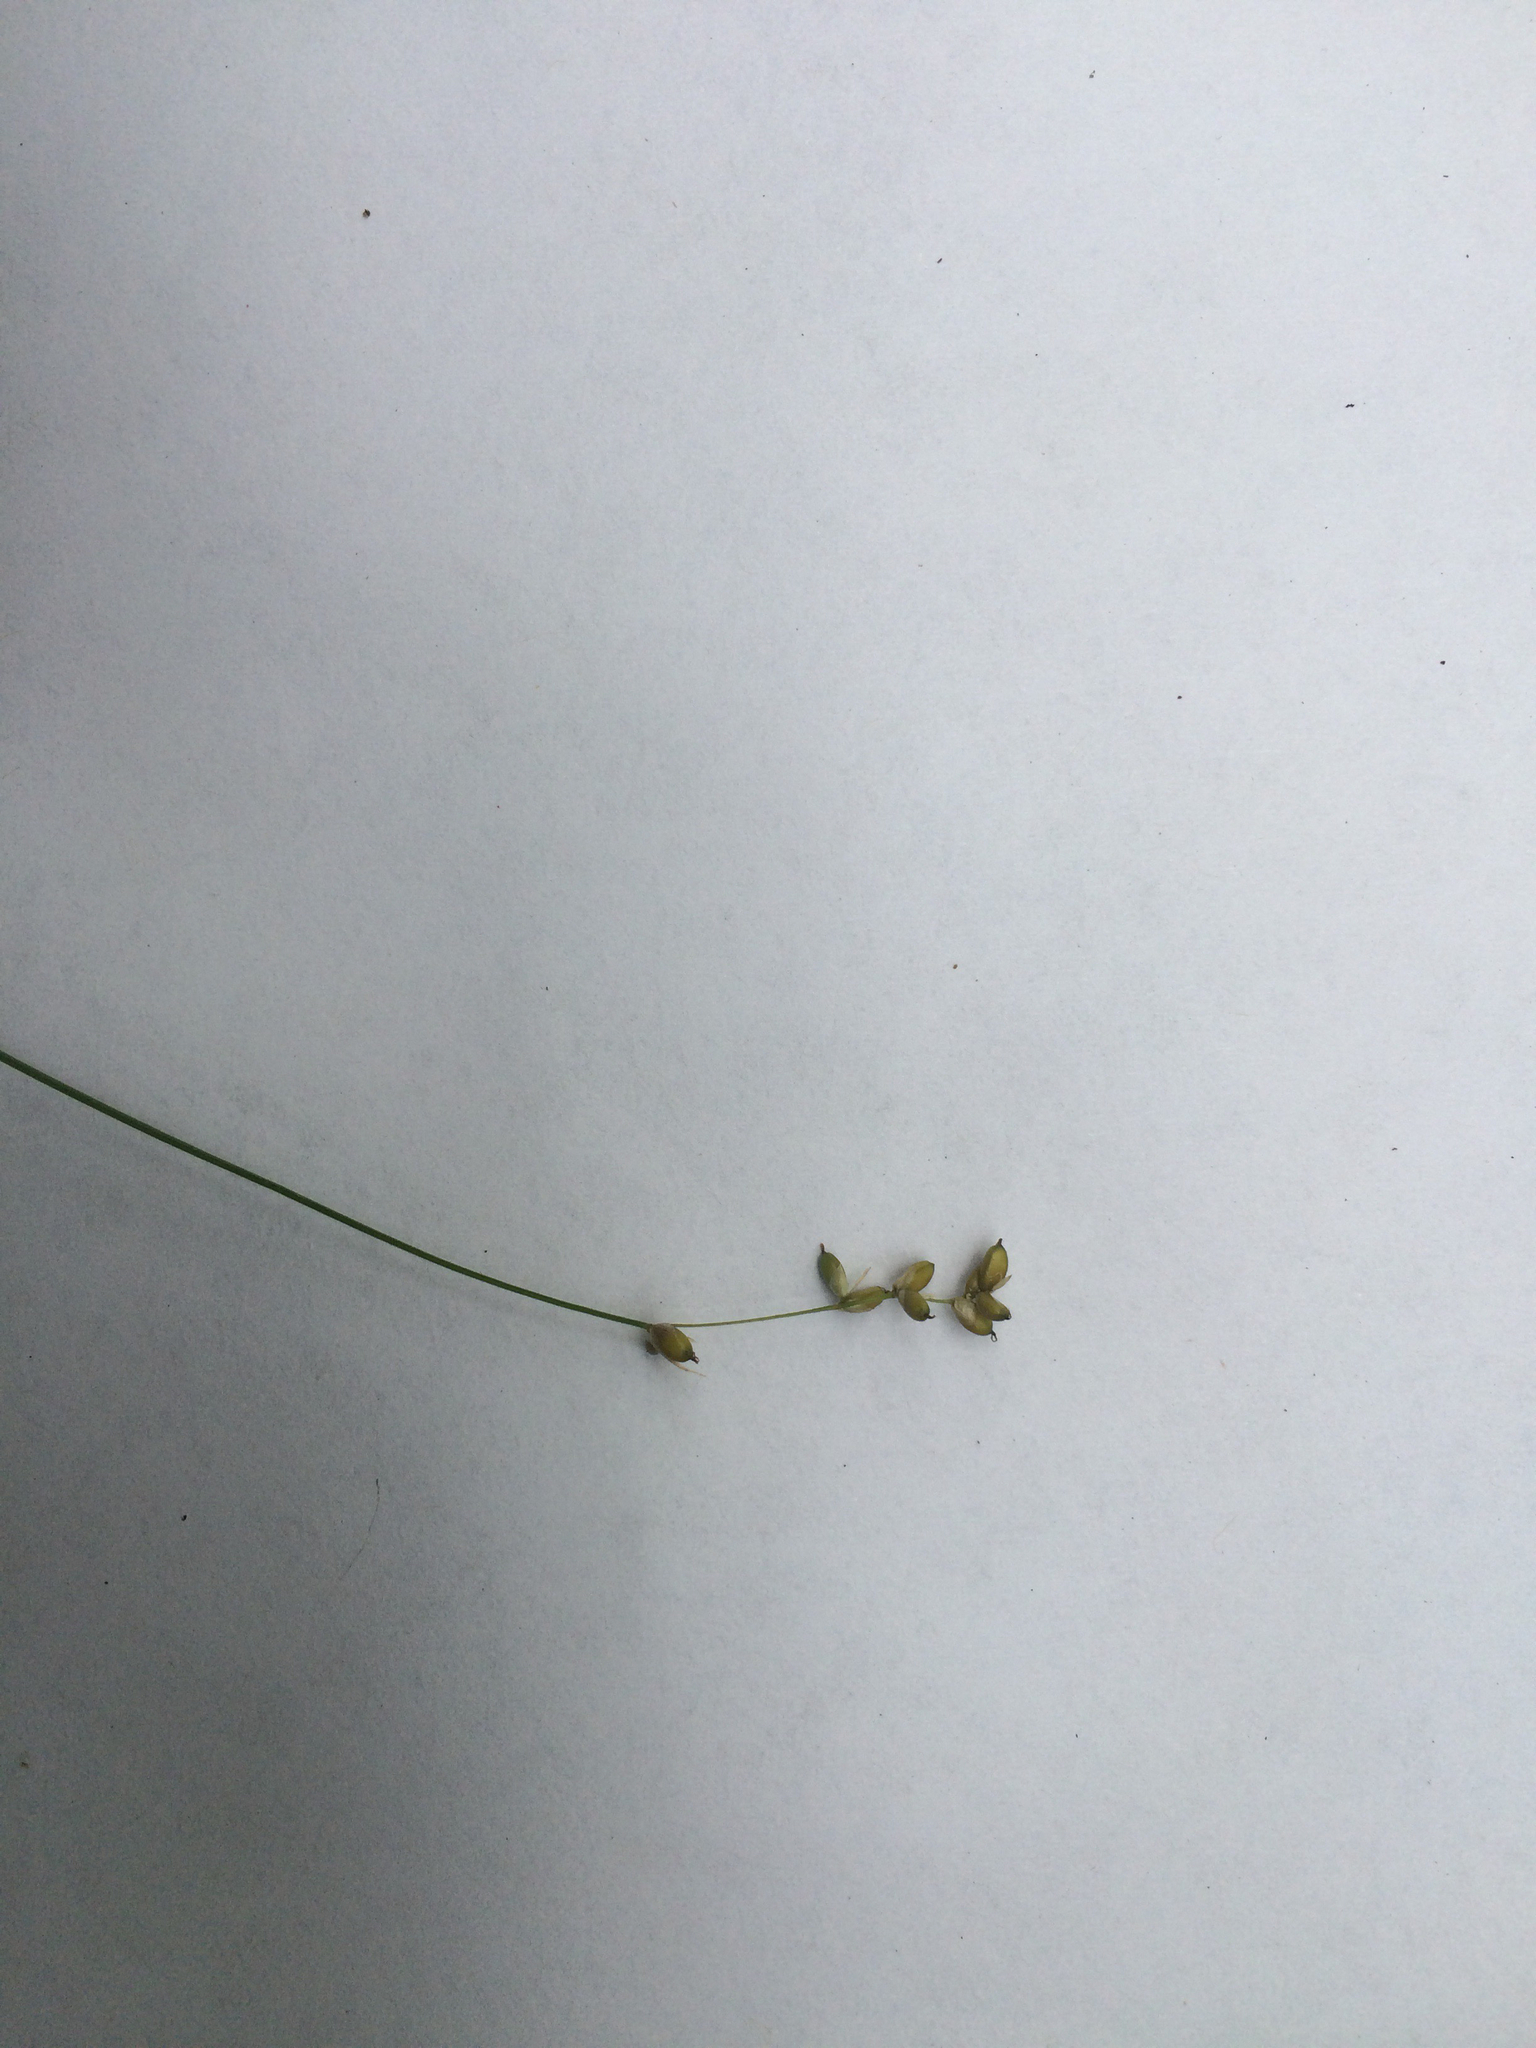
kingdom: Plantae
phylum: Tracheophyta
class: Liliopsida
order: Poales
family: Cyperaceae
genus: Carex
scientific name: Carex disperma
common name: Short-leaved sedge
